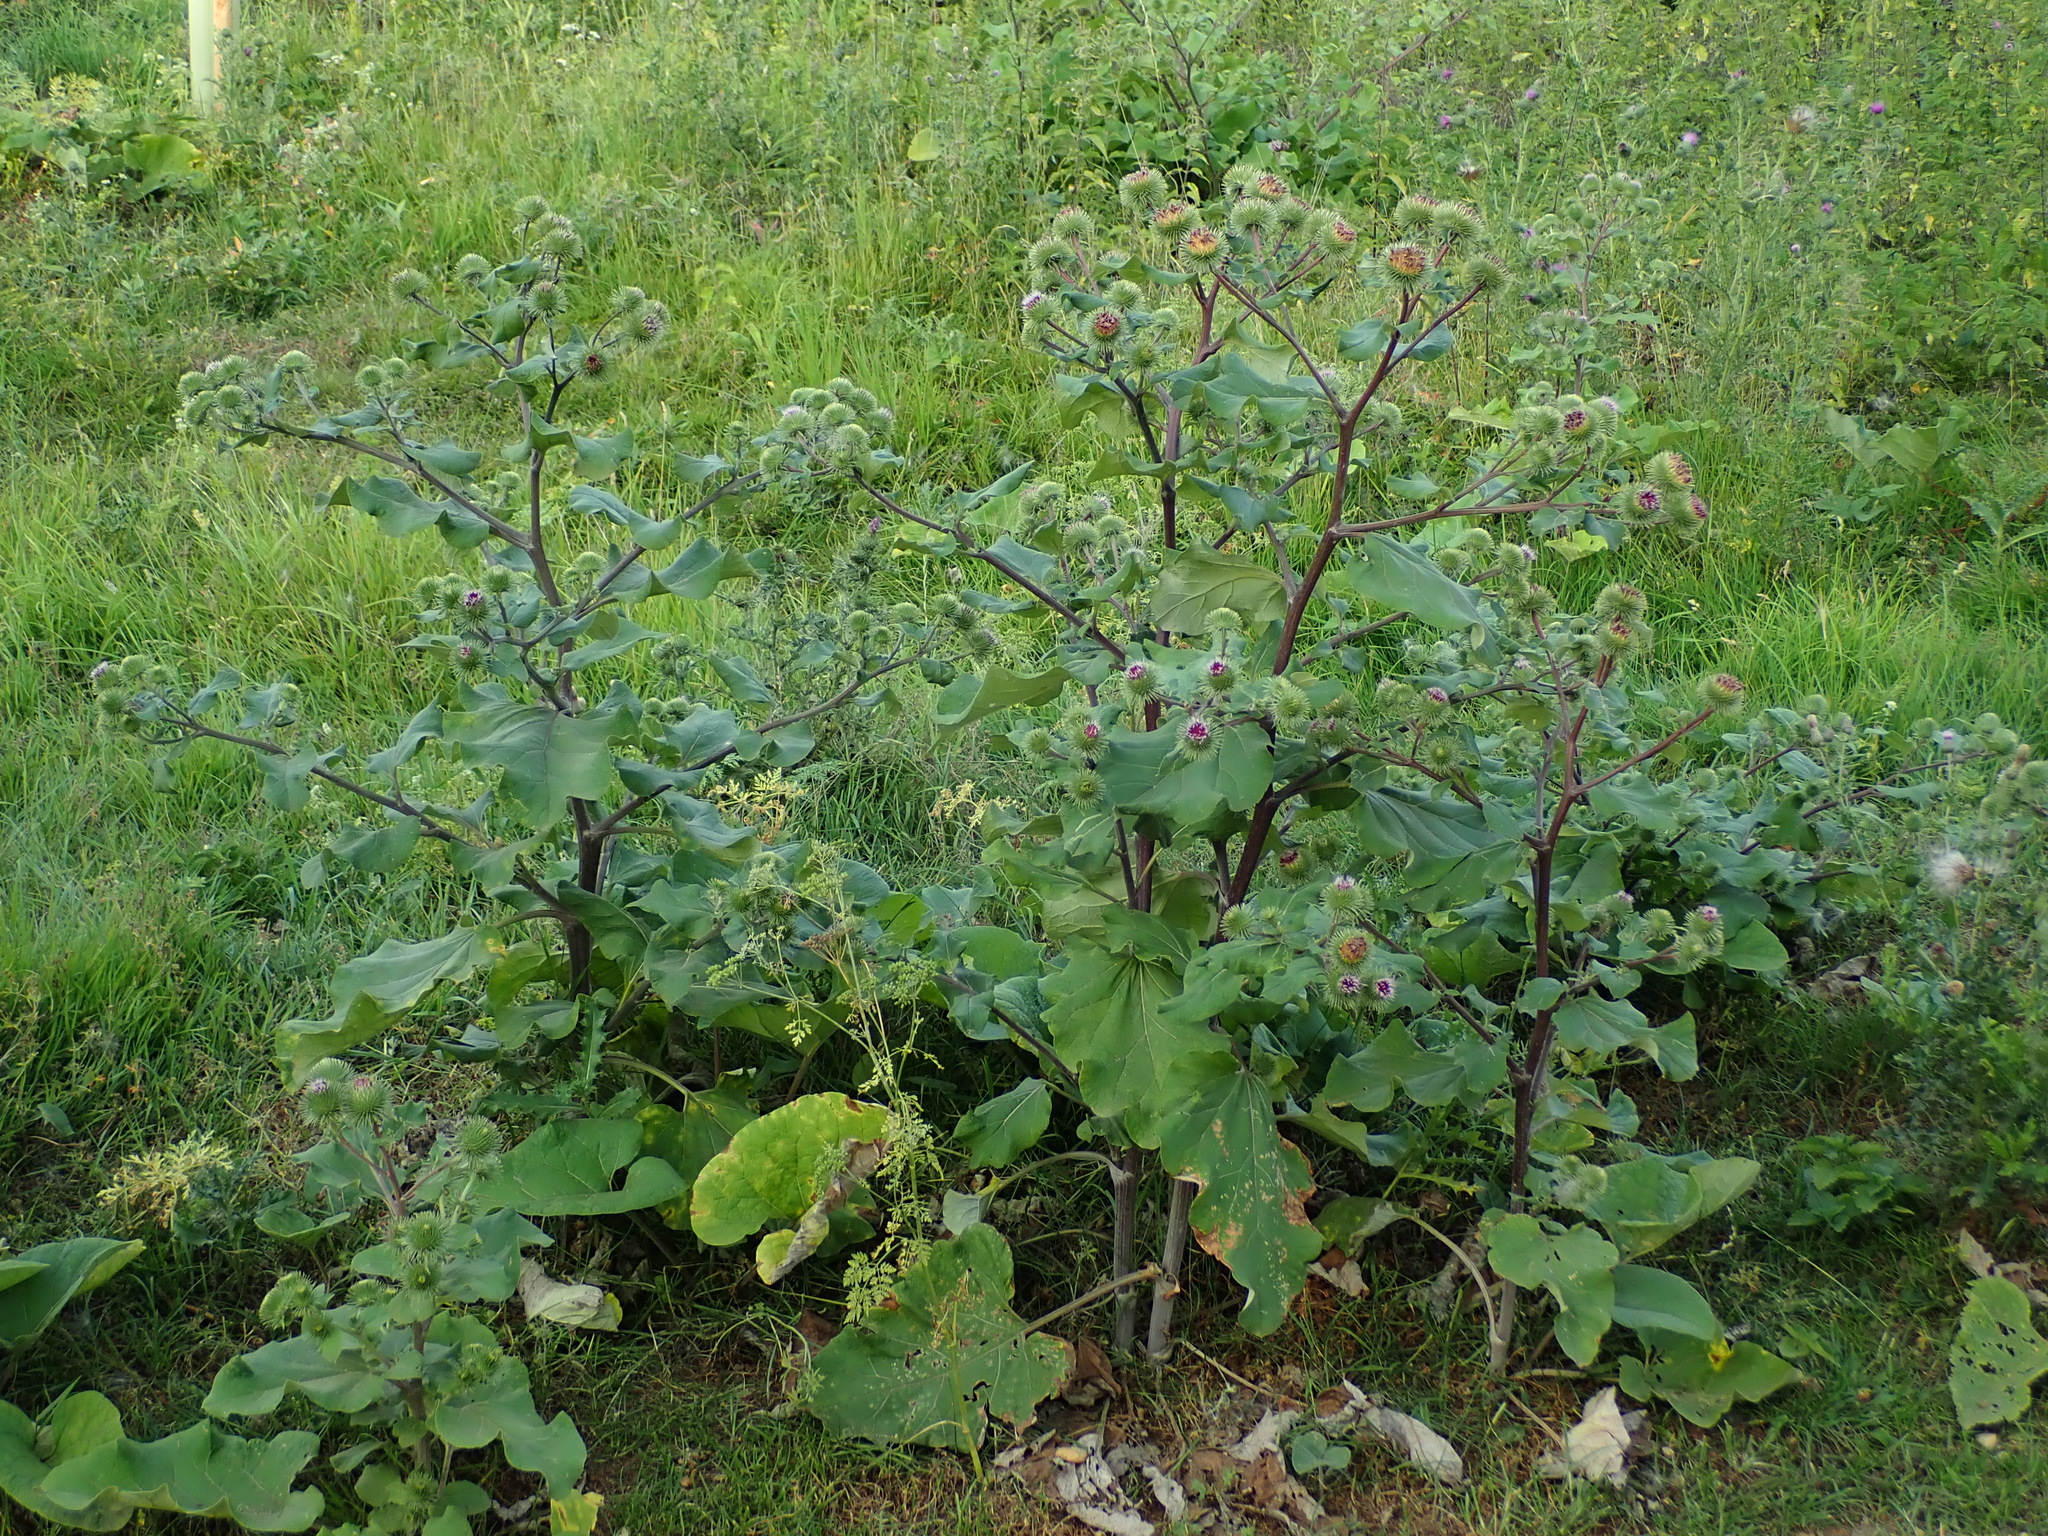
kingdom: Plantae
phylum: Tracheophyta
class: Magnoliopsida
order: Asterales
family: Asteraceae
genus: Arctium
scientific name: Arctium lappa
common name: Greater burdock
